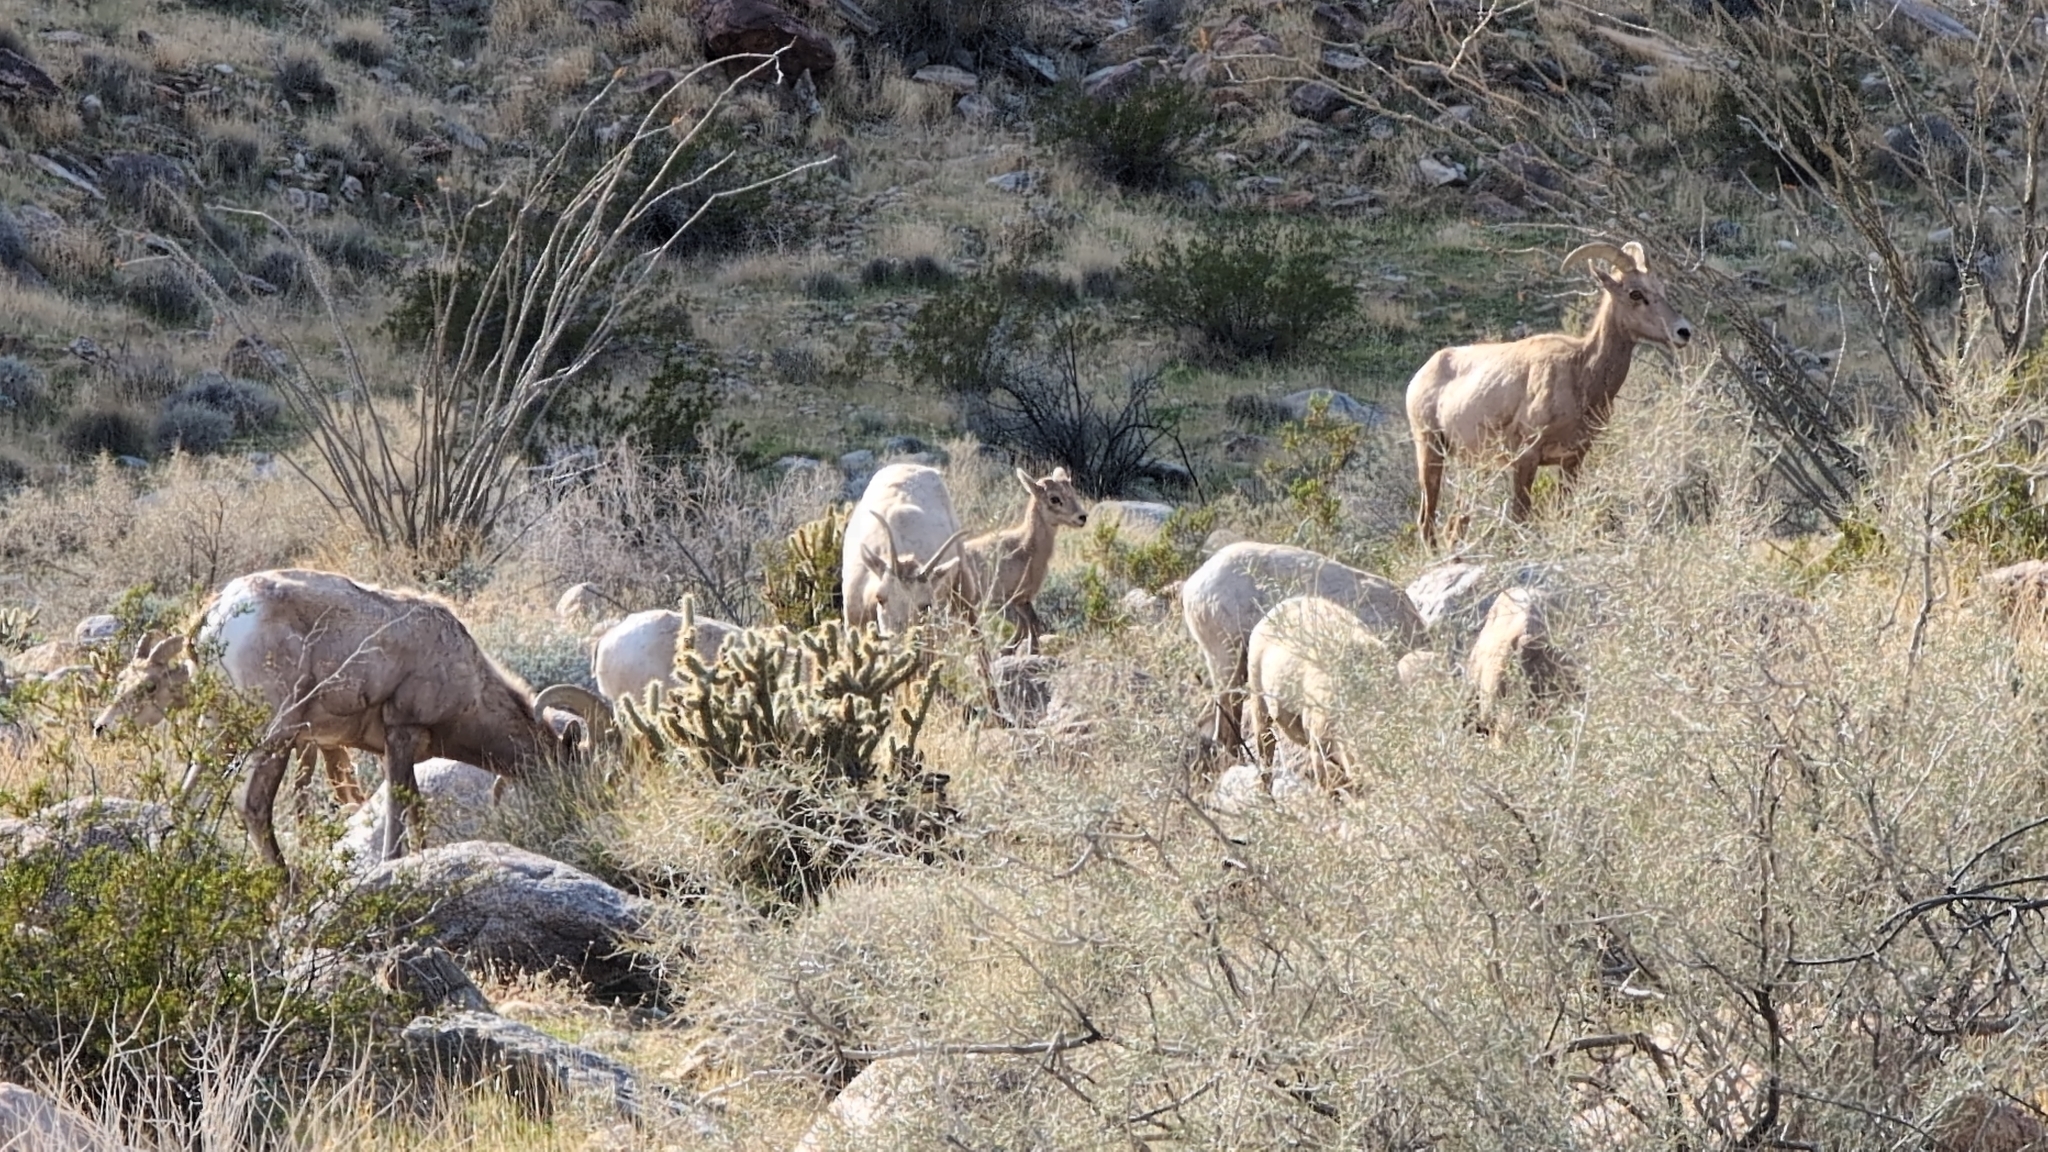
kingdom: Animalia
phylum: Chordata
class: Mammalia
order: Artiodactyla
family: Bovidae
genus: Ovis
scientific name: Ovis canadensis
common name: Bighorn sheep
